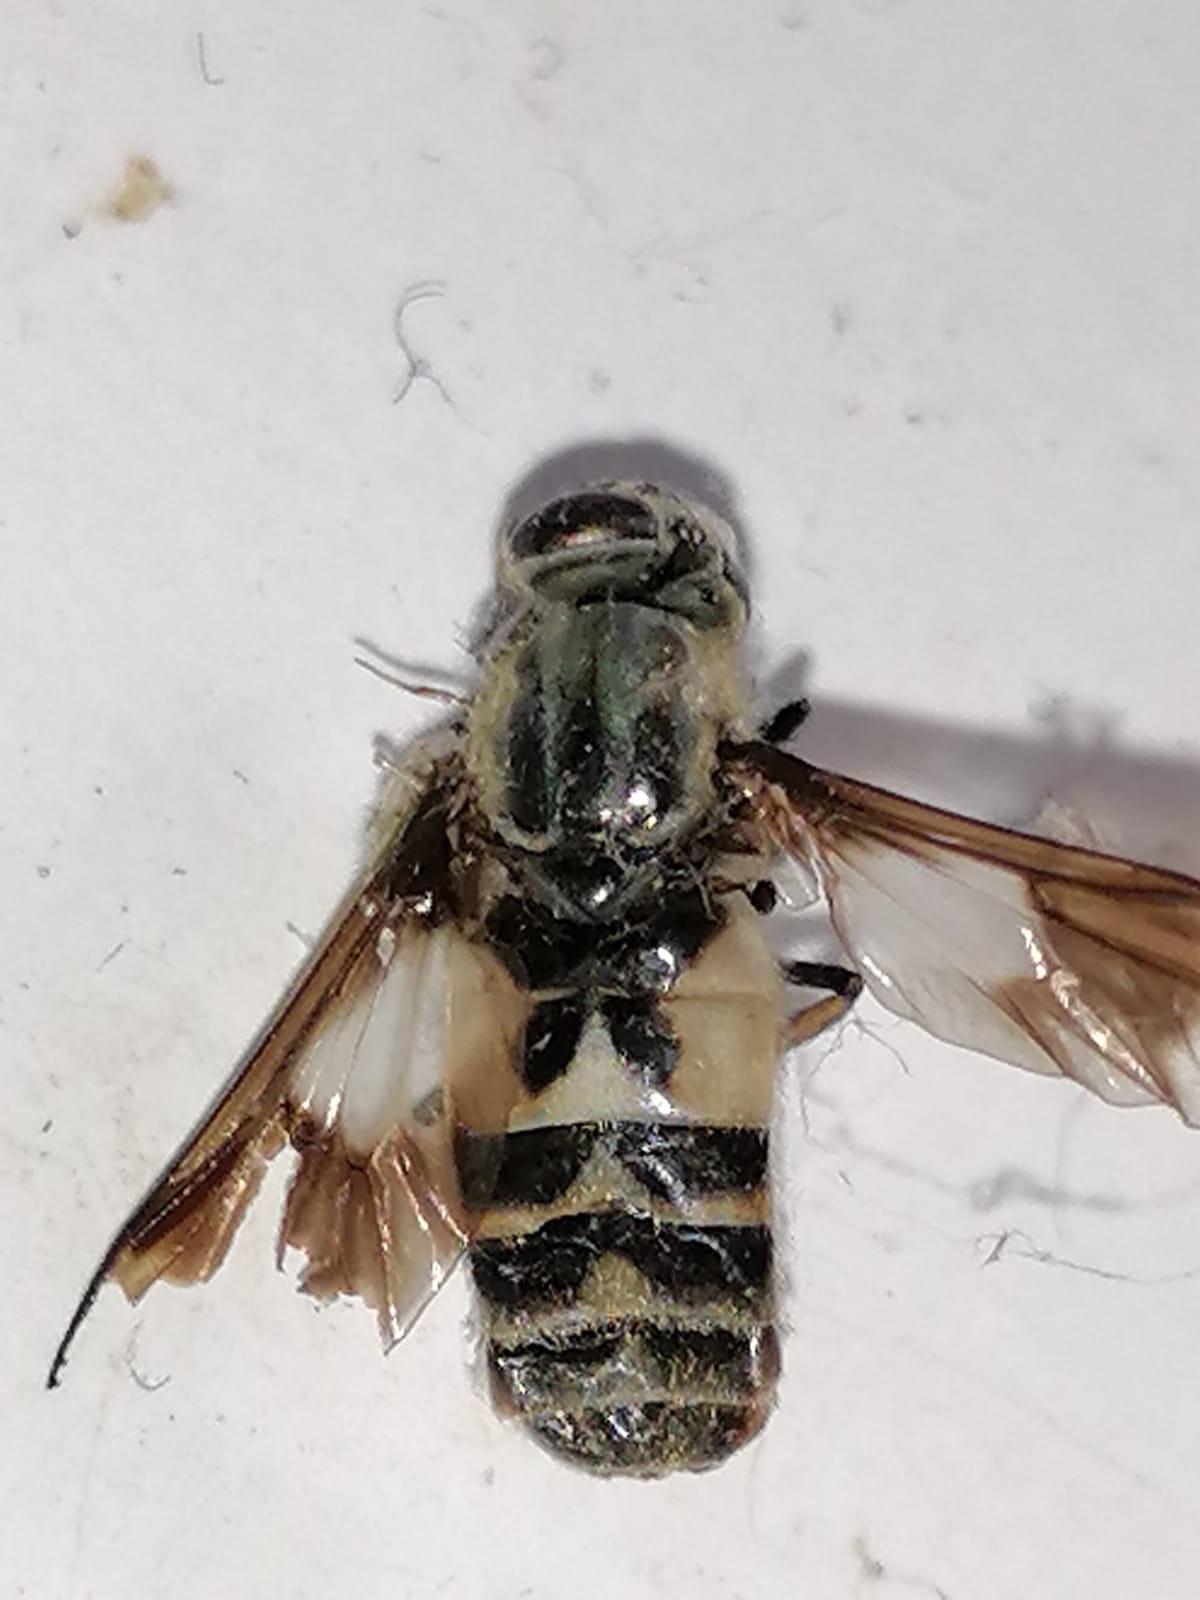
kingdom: Animalia
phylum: Arthropoda
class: Insecta
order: Diptera
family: Tabanidae
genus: Chrysops
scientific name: Chrysops relictus
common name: Twin-lobed deerfly
